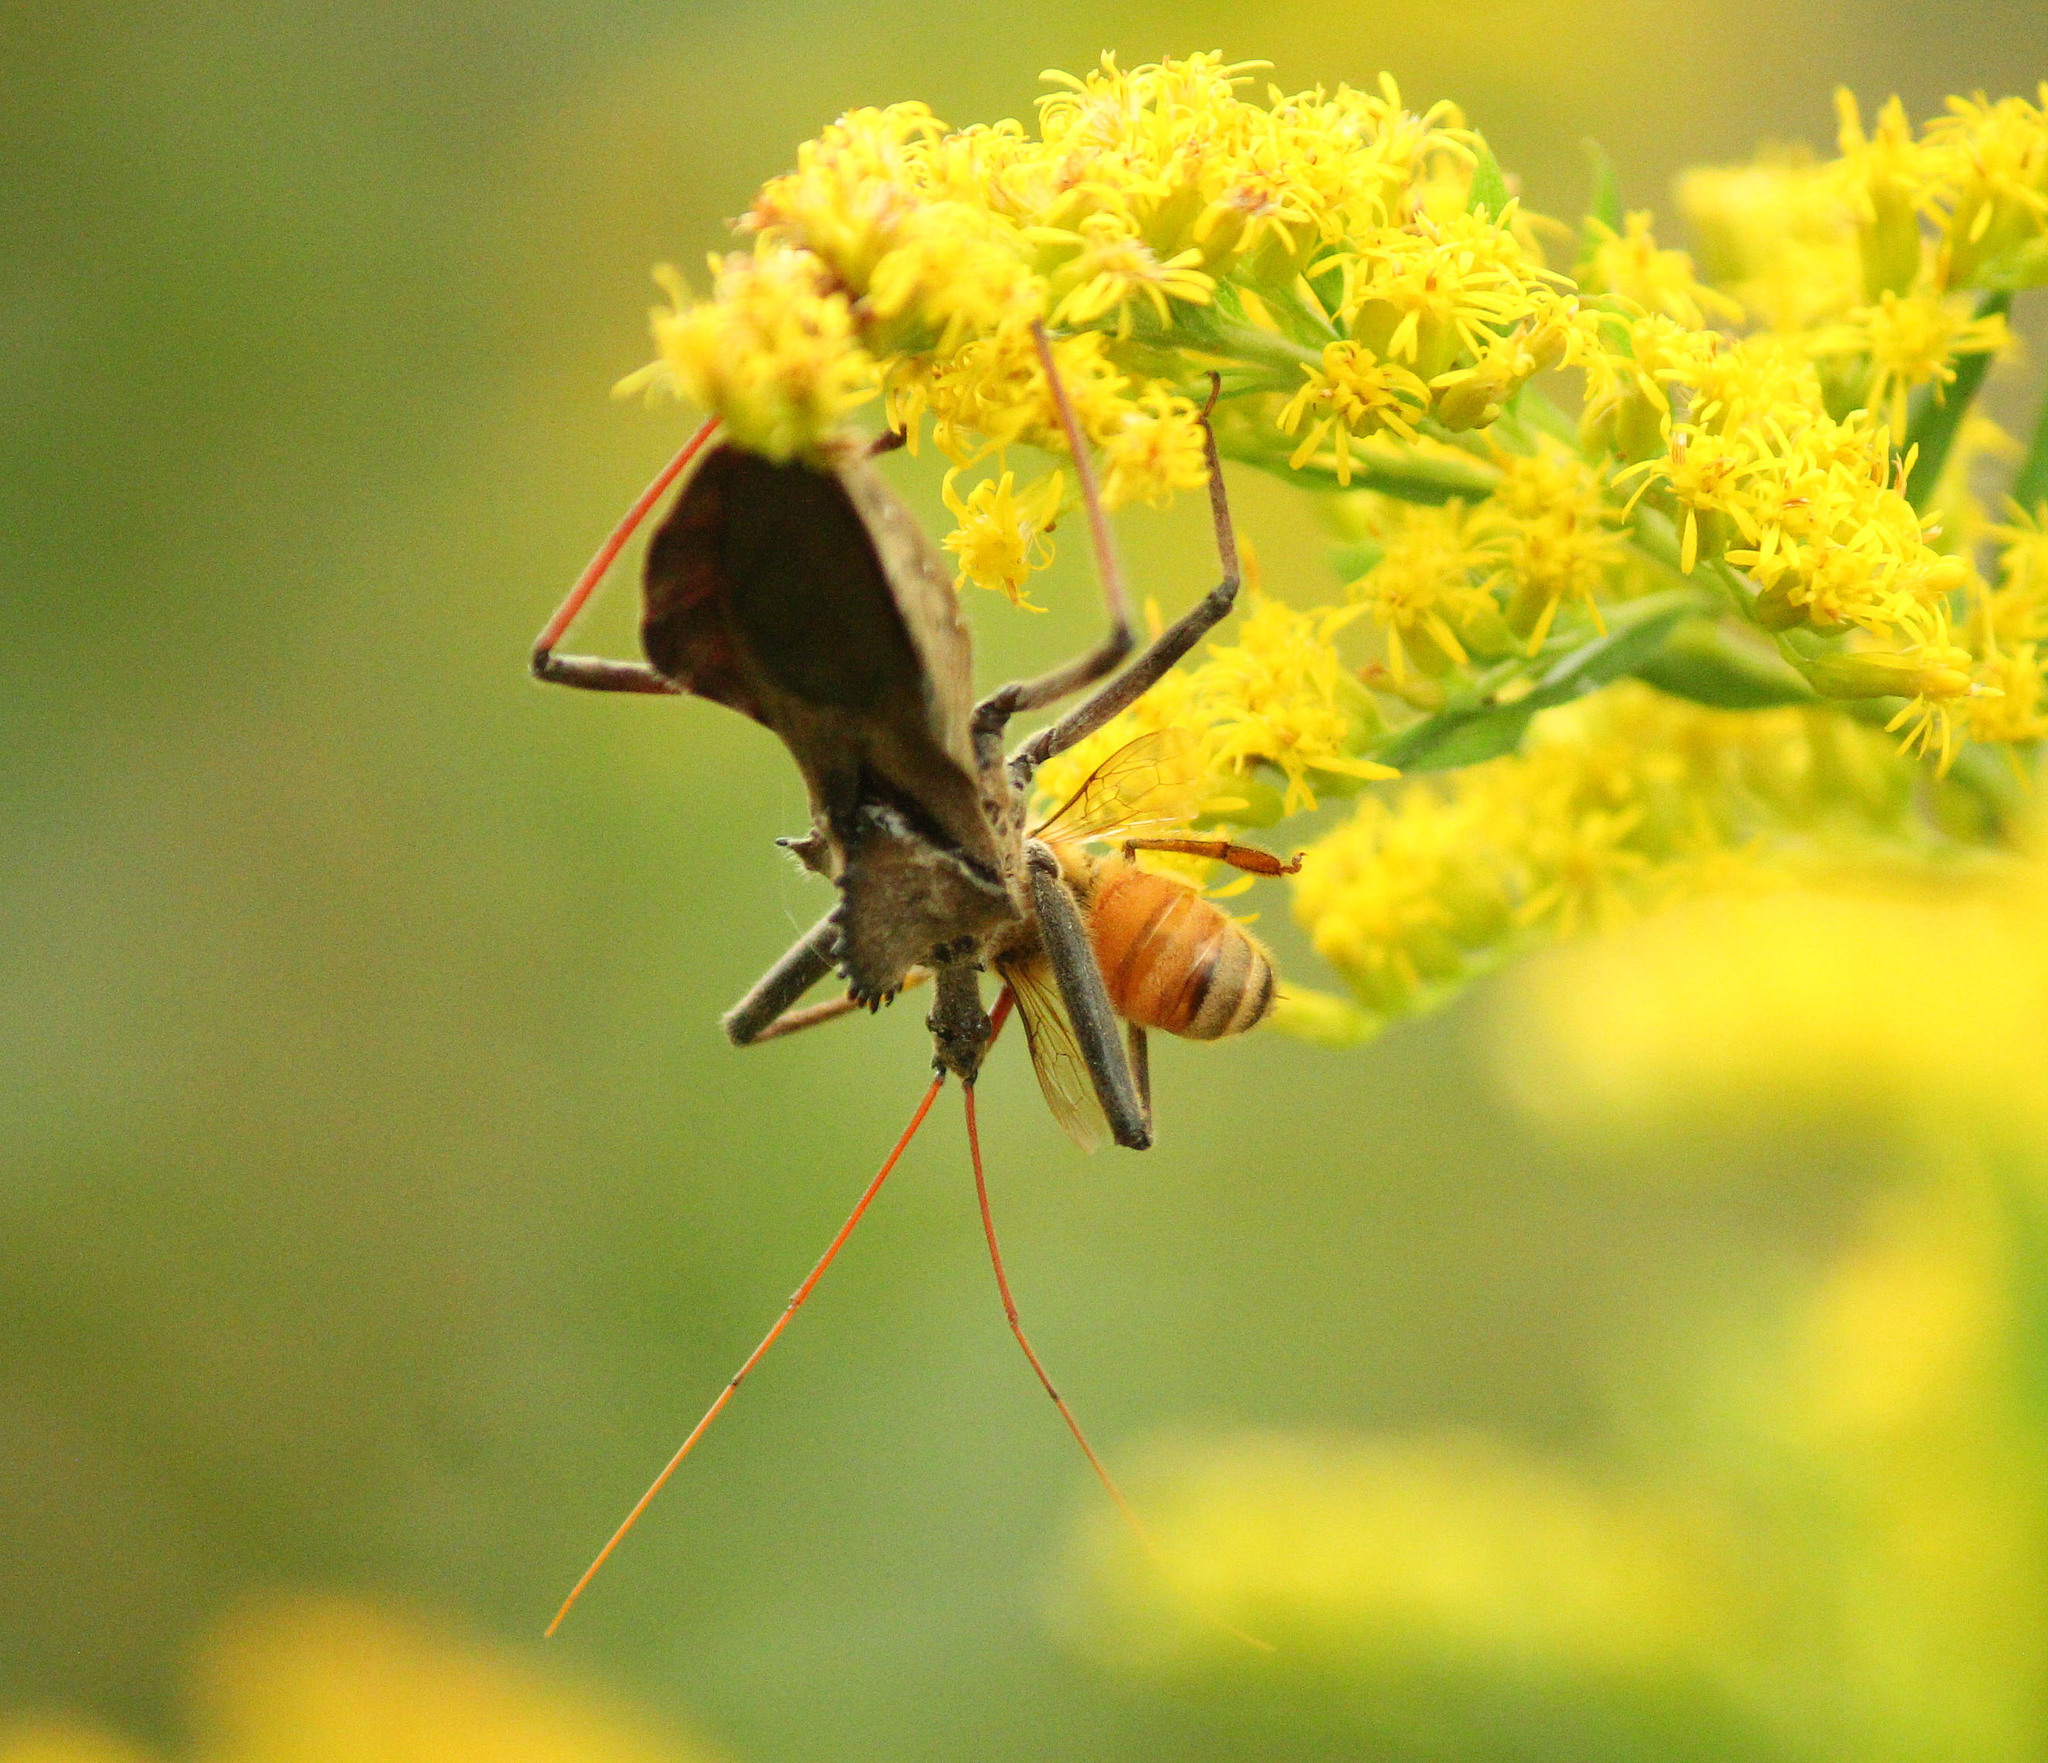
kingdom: Animalia
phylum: Arthropoda
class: Insecta
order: Hemiptera
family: Reduviidae
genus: Arilus
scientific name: Arilus cristatus
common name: North american wheel bug
